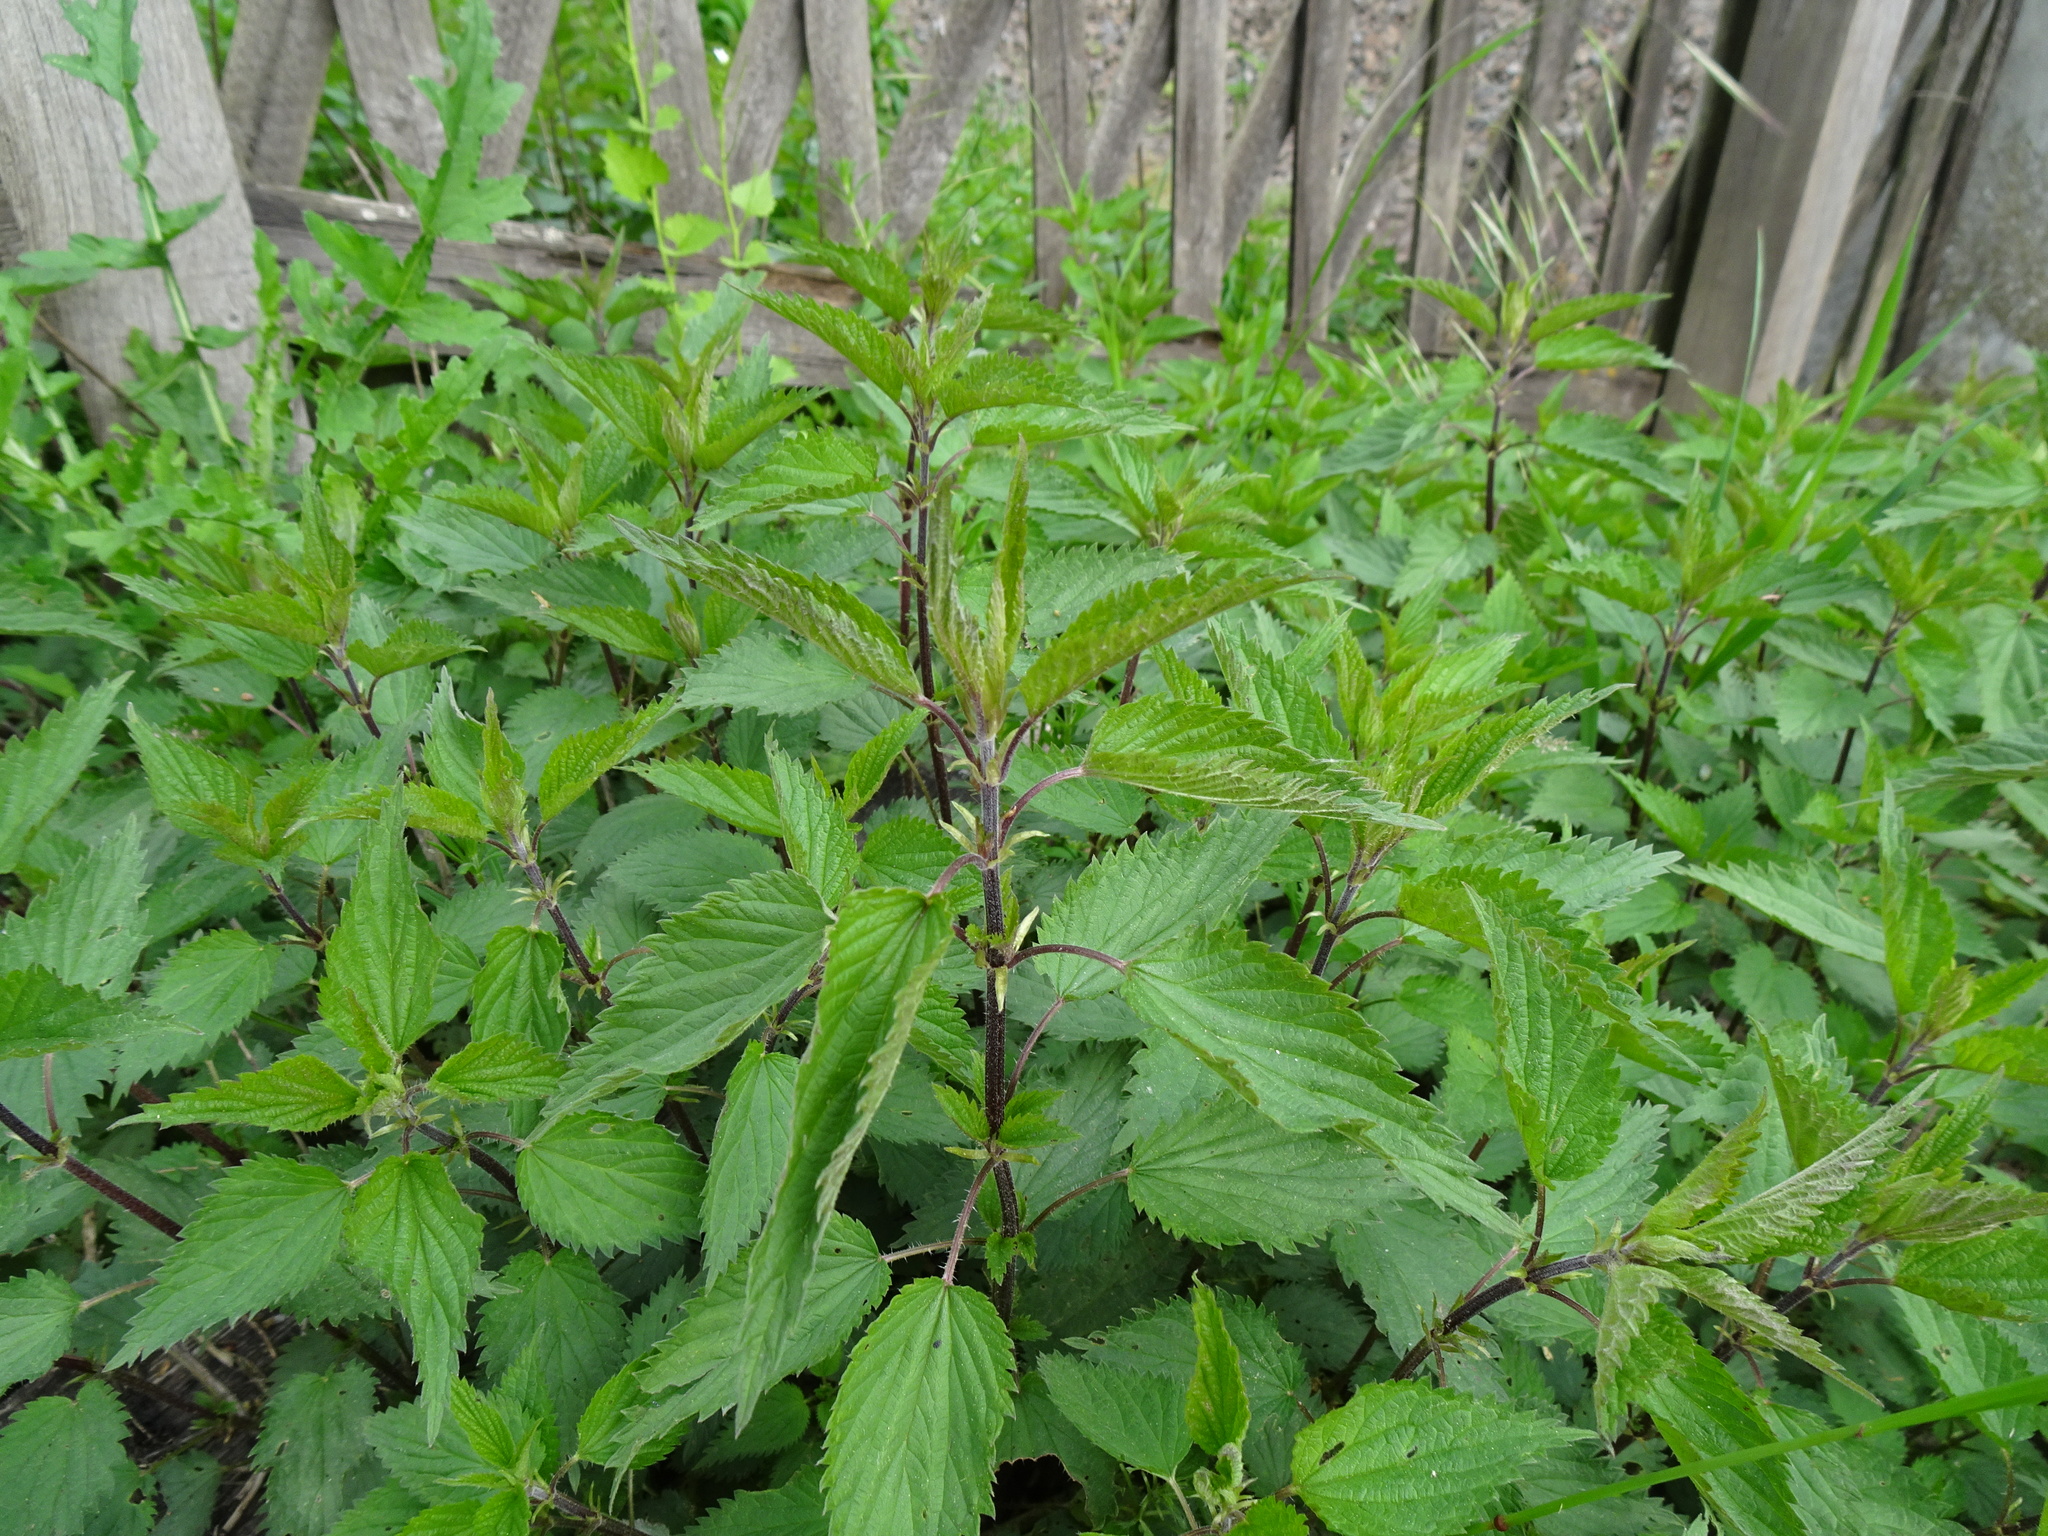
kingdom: Plantae
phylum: Tracheophyta
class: Magnoliopsida
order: Rosales
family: Urticaceae
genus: Urtica
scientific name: Urtica dioica
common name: Common nettle
